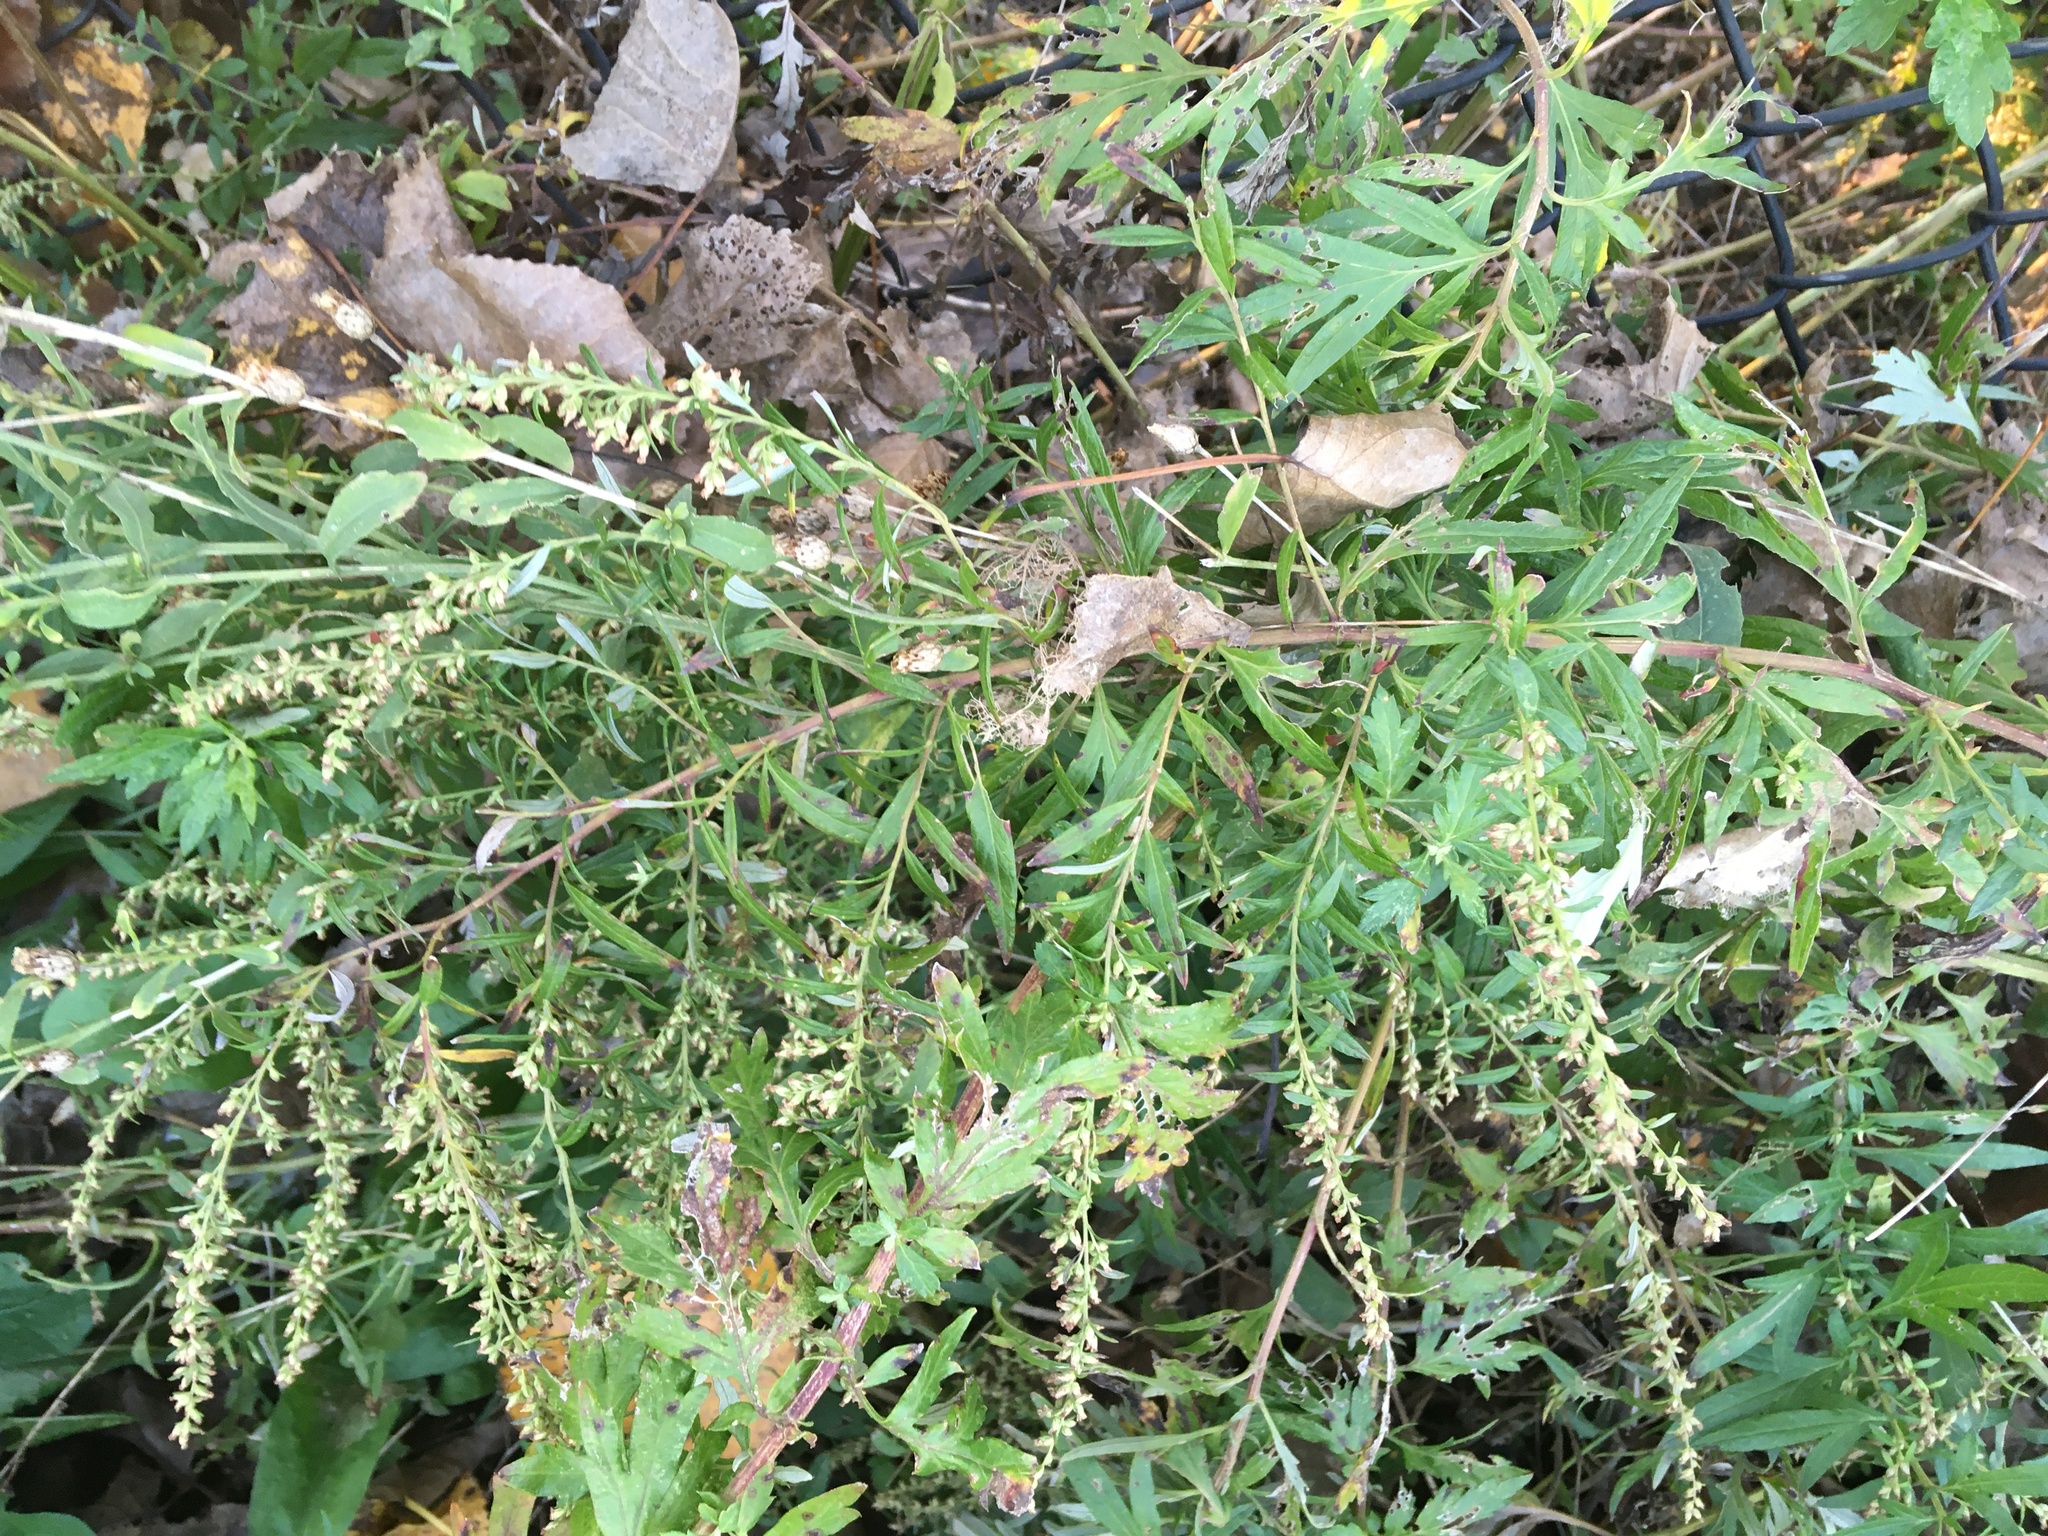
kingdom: Plantae
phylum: Tracheophyta
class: Magnoliopsida
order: Asterales
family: Asteraceae
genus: Artemisia
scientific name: Artemisia vulgaris
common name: Mugwort
